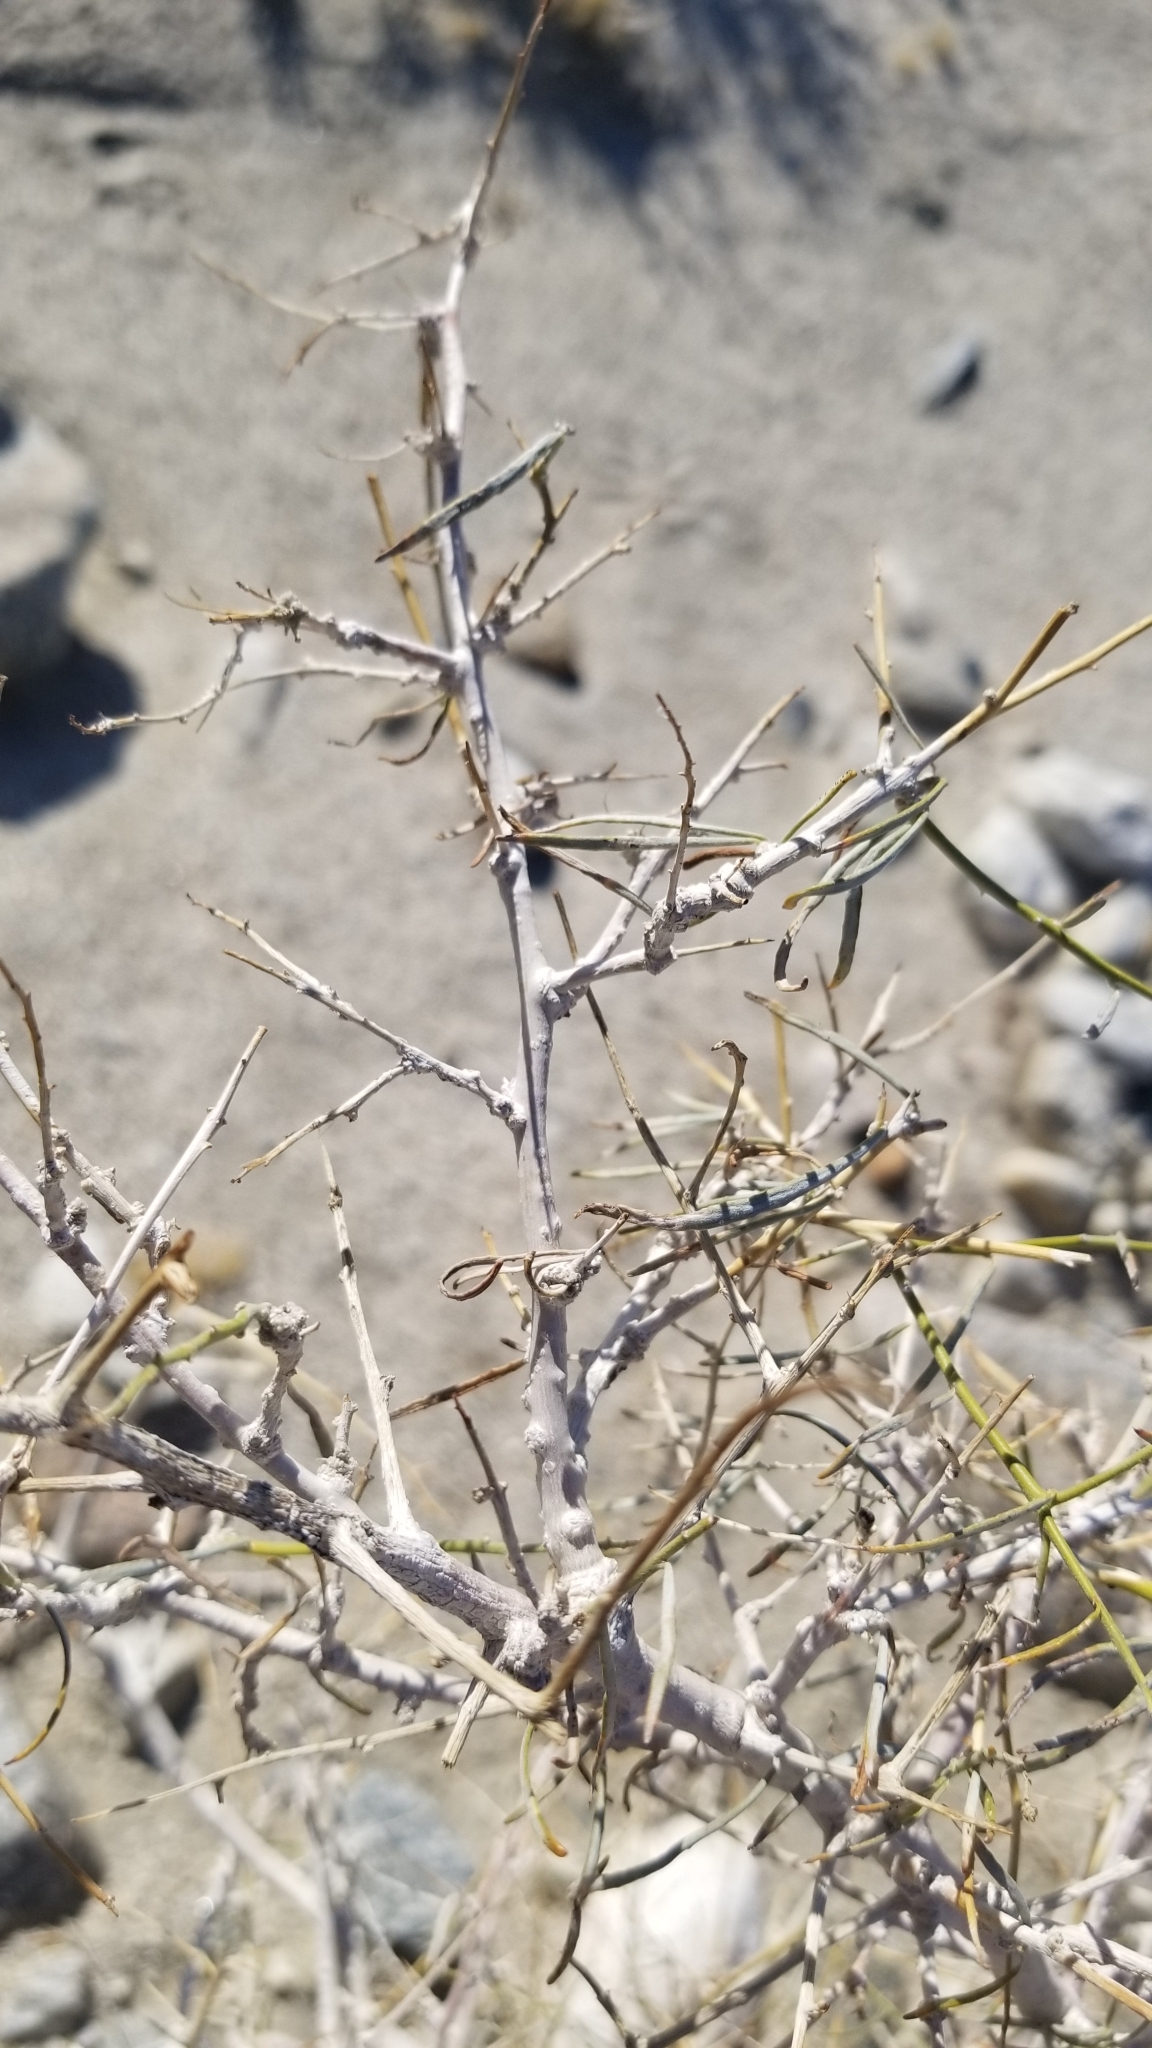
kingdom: Plantae
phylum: Tracheophyta
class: Magnoliopsida
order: Fabales
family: Fabaceae
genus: Psorothamnus
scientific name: Psorothamnus schottii
